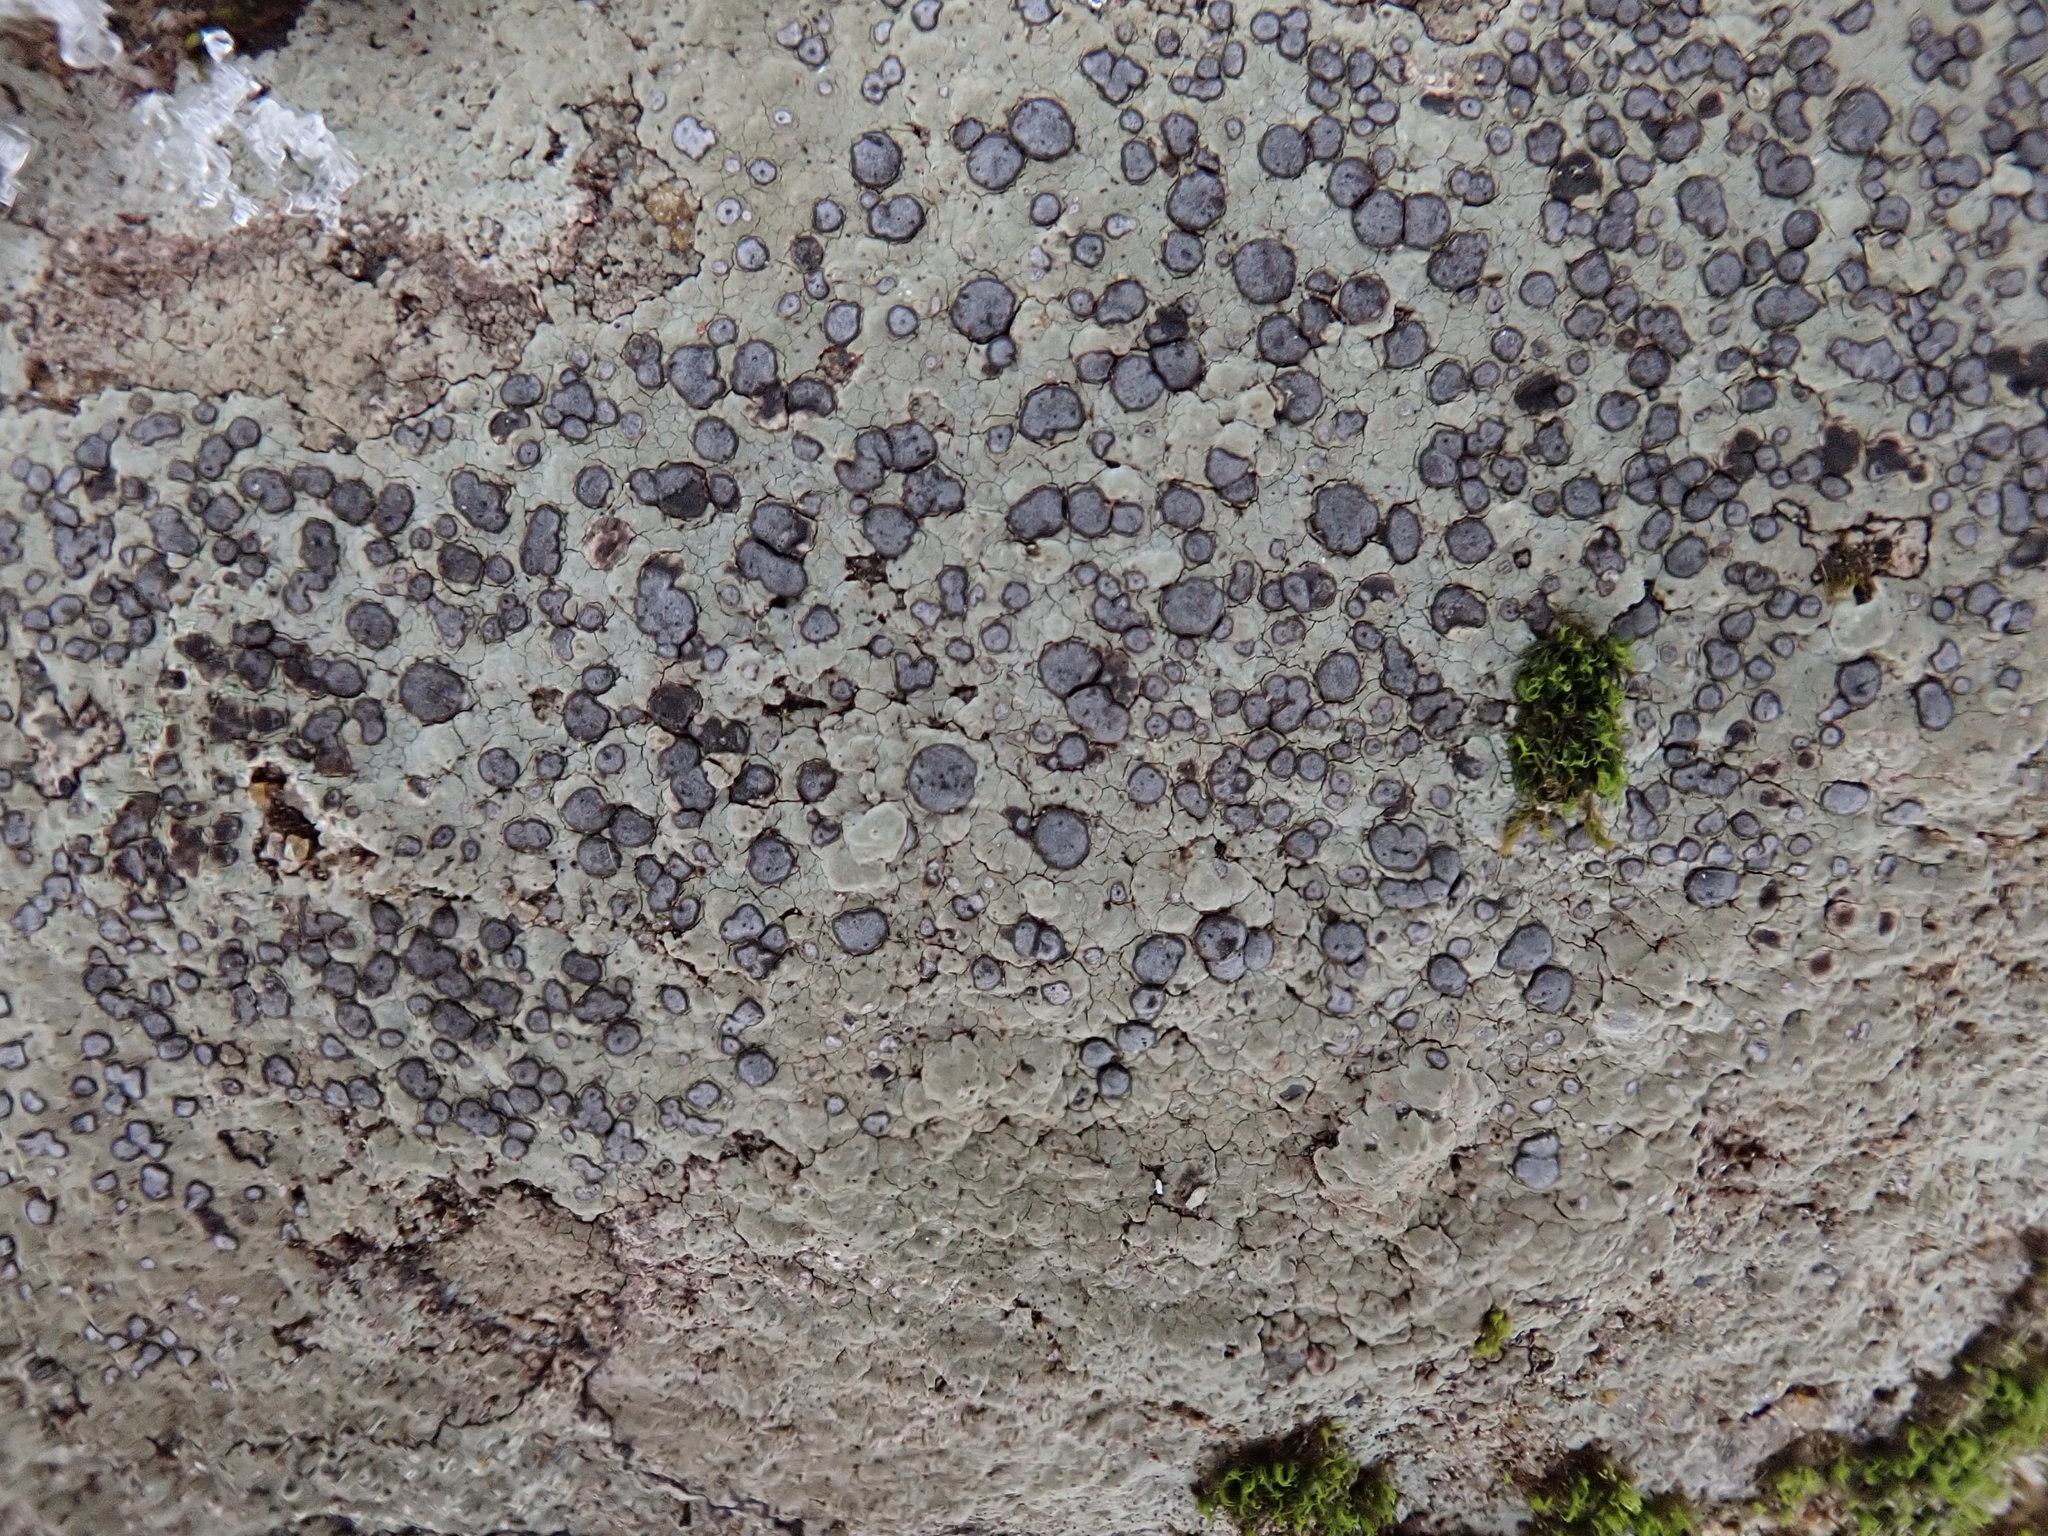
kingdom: Fungi
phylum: Ascomycota
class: Lecanoromycetes
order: Lecideales
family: Lecideaceae
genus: Porpidia
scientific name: Porpidia albocaerulescens
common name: Smokey-eyed boulder lichen
